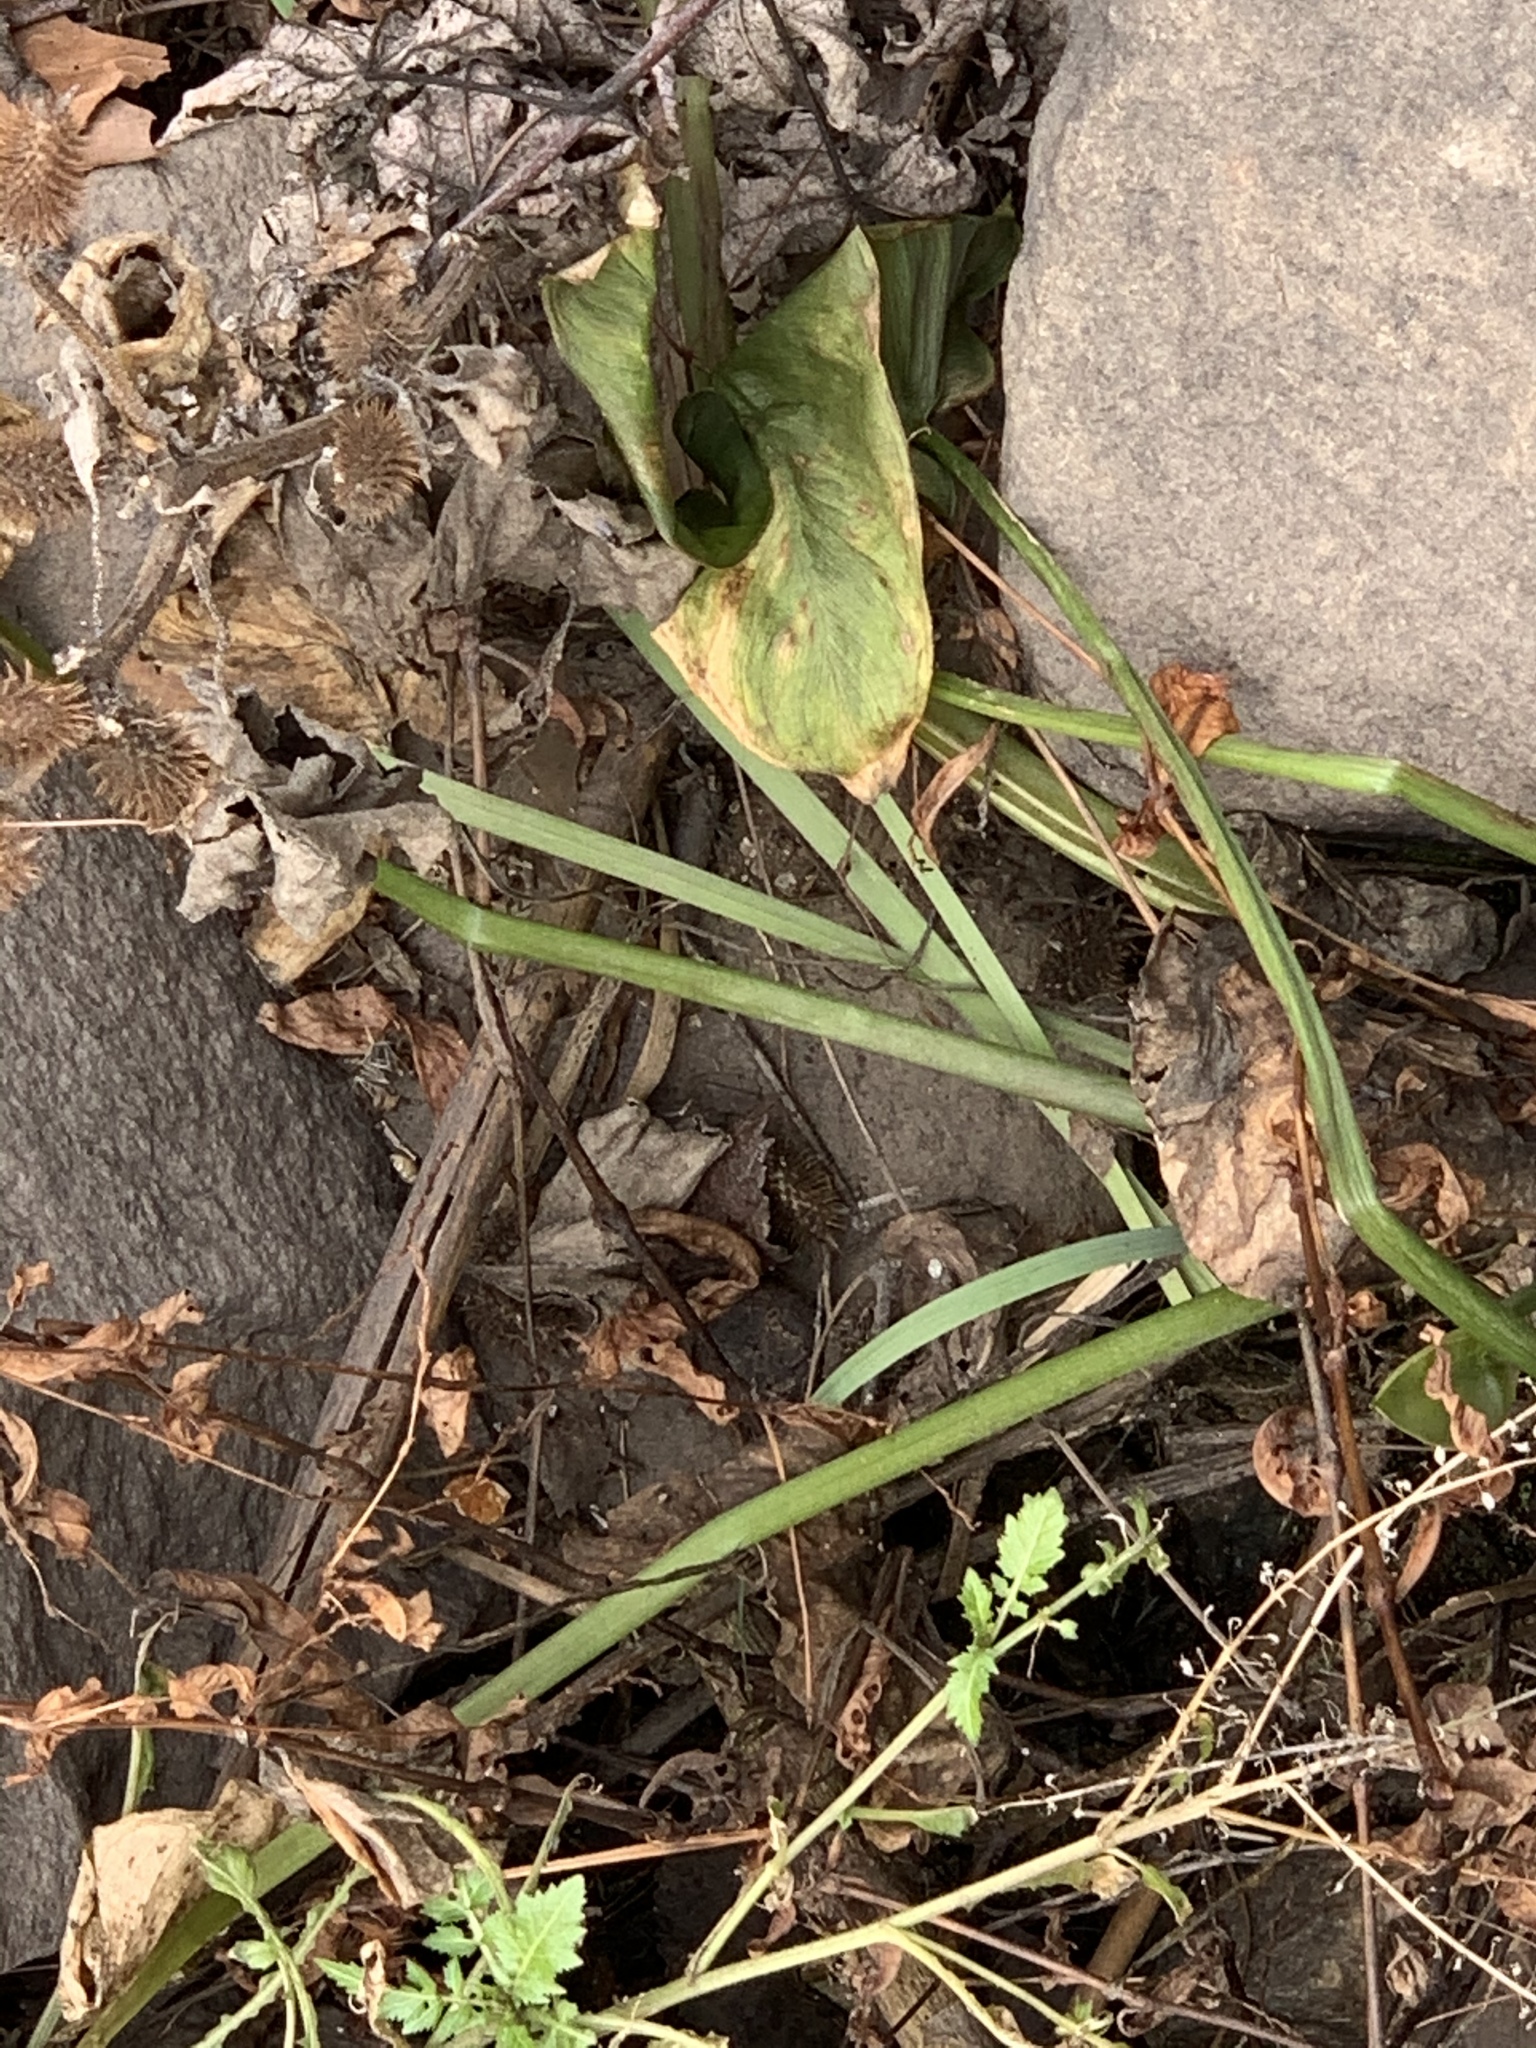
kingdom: Plantae
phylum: Tracheophyta
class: Liliopsida
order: Alismatales
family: Araceae
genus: Peltandra
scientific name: Peltandra virginica
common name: Arrow arum
